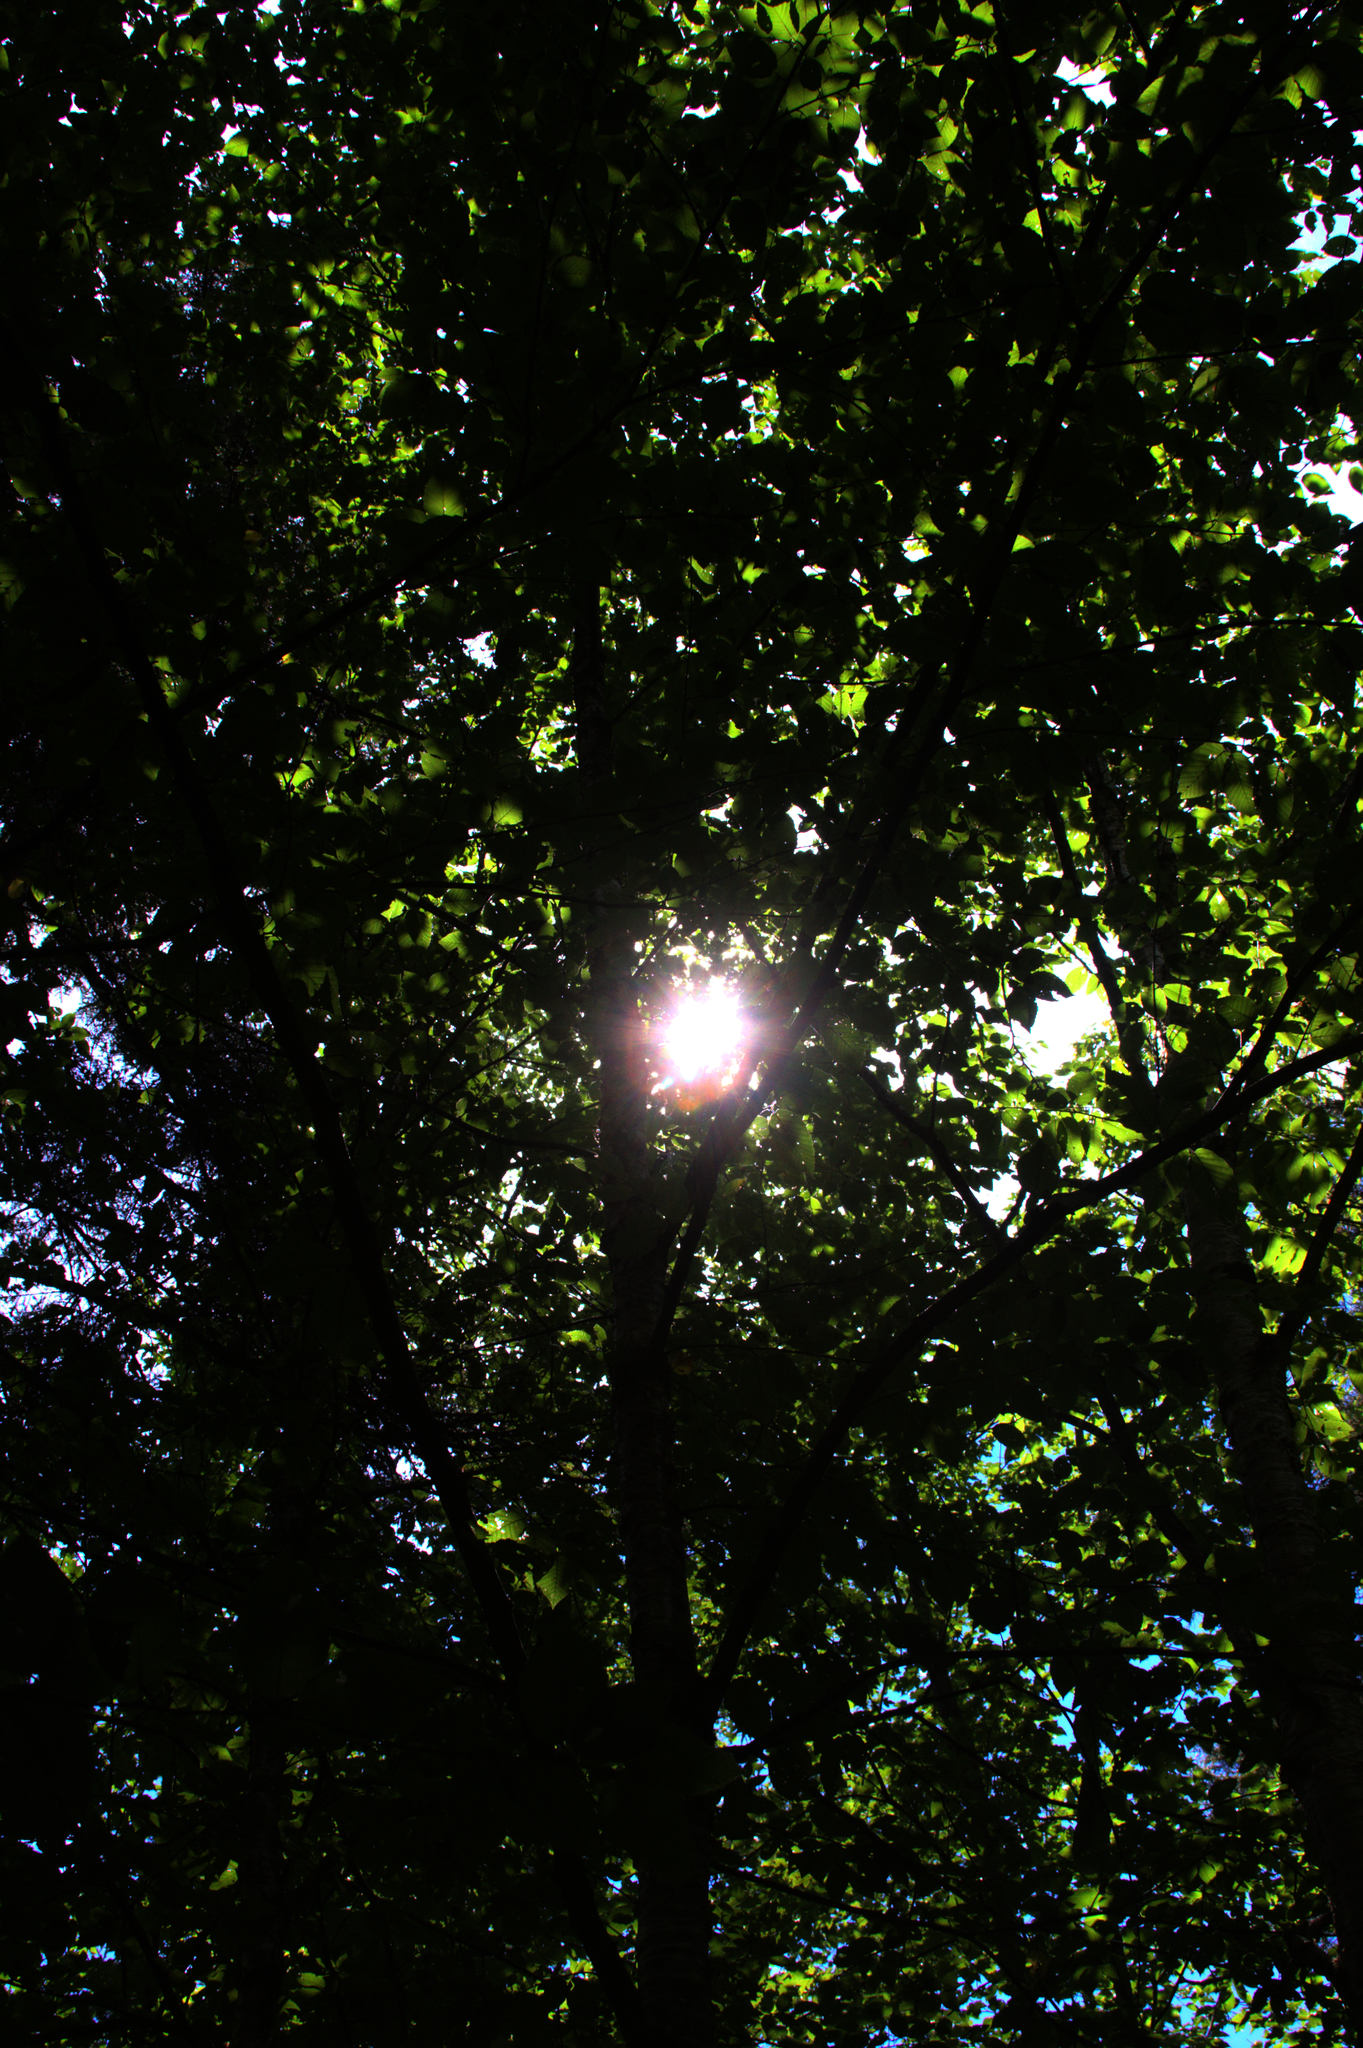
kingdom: Plantae
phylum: Tracheophyta
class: Magnoliopsida
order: Fagales
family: Betulaceae
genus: Betula
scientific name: Betula alleghaniensis
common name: Yellow birch
